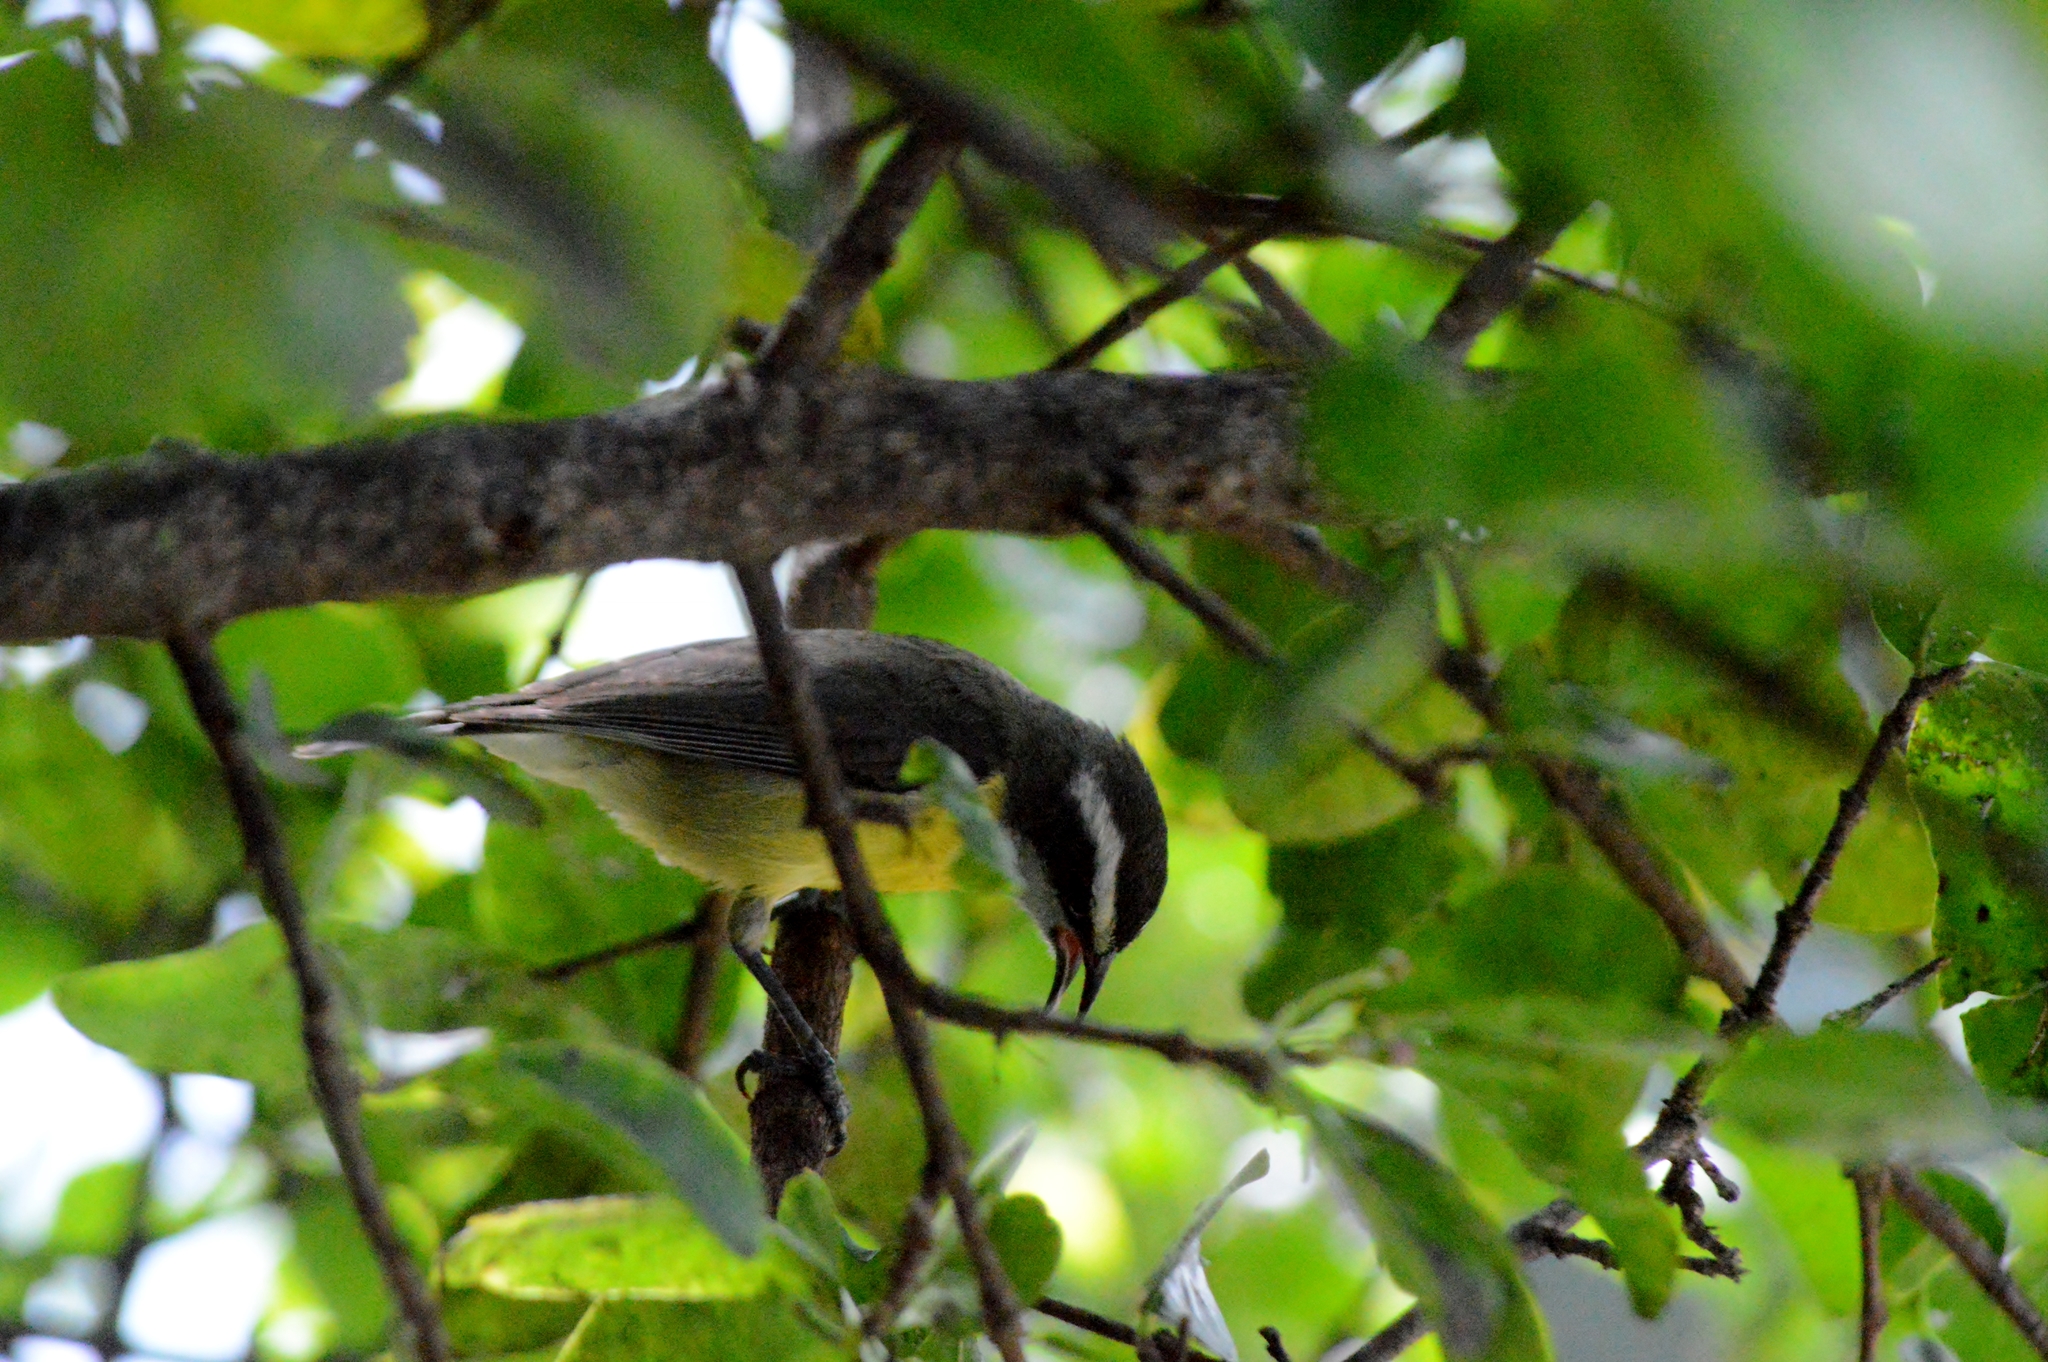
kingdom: Animalia
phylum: Chordata
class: Aves
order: Passeriformes
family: Thraupidae
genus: Coereba
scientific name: Coereba flaveola
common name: Bananaquit
